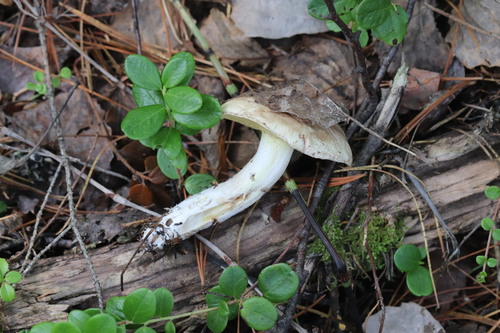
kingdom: Fungi
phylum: Basidiomycota
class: Agaricomycetes
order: Boletales
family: Suillaceae
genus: Suillus
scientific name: Suillus placidus
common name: Slippery white bolete
